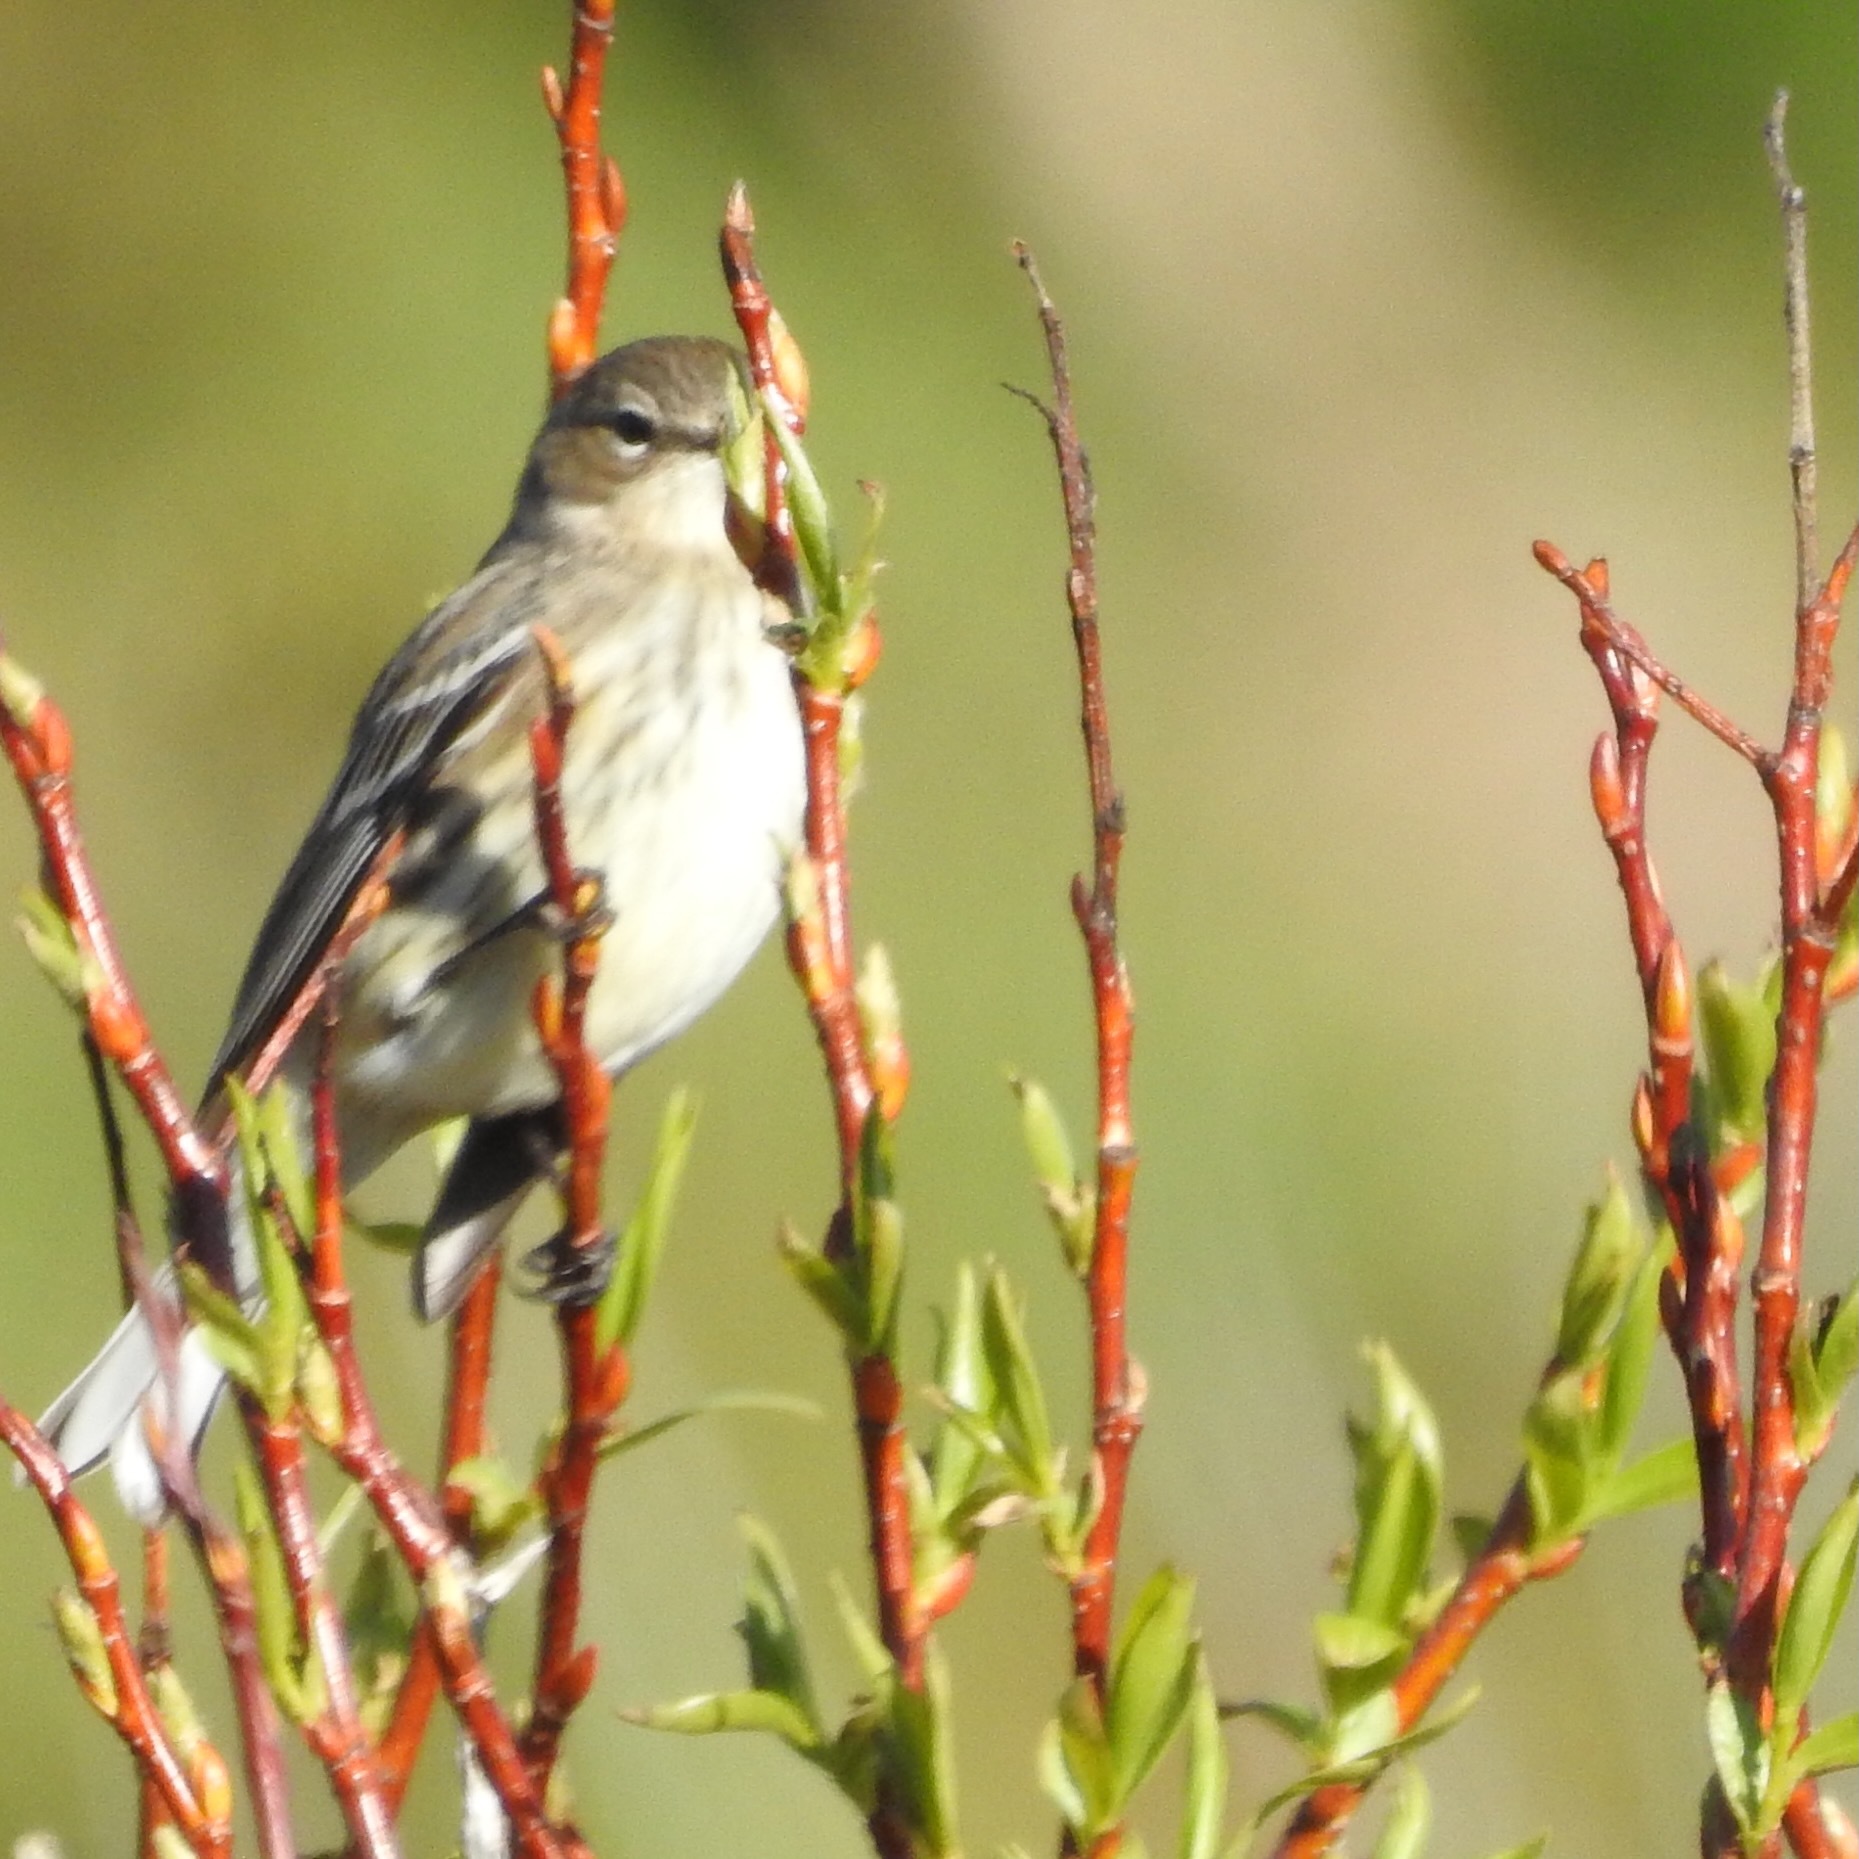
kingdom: Animalia
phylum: Chordata
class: Aves
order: Passeriformes
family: Parulidae
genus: Setophaga
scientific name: Setophaga coronata
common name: Myrtle warbler
